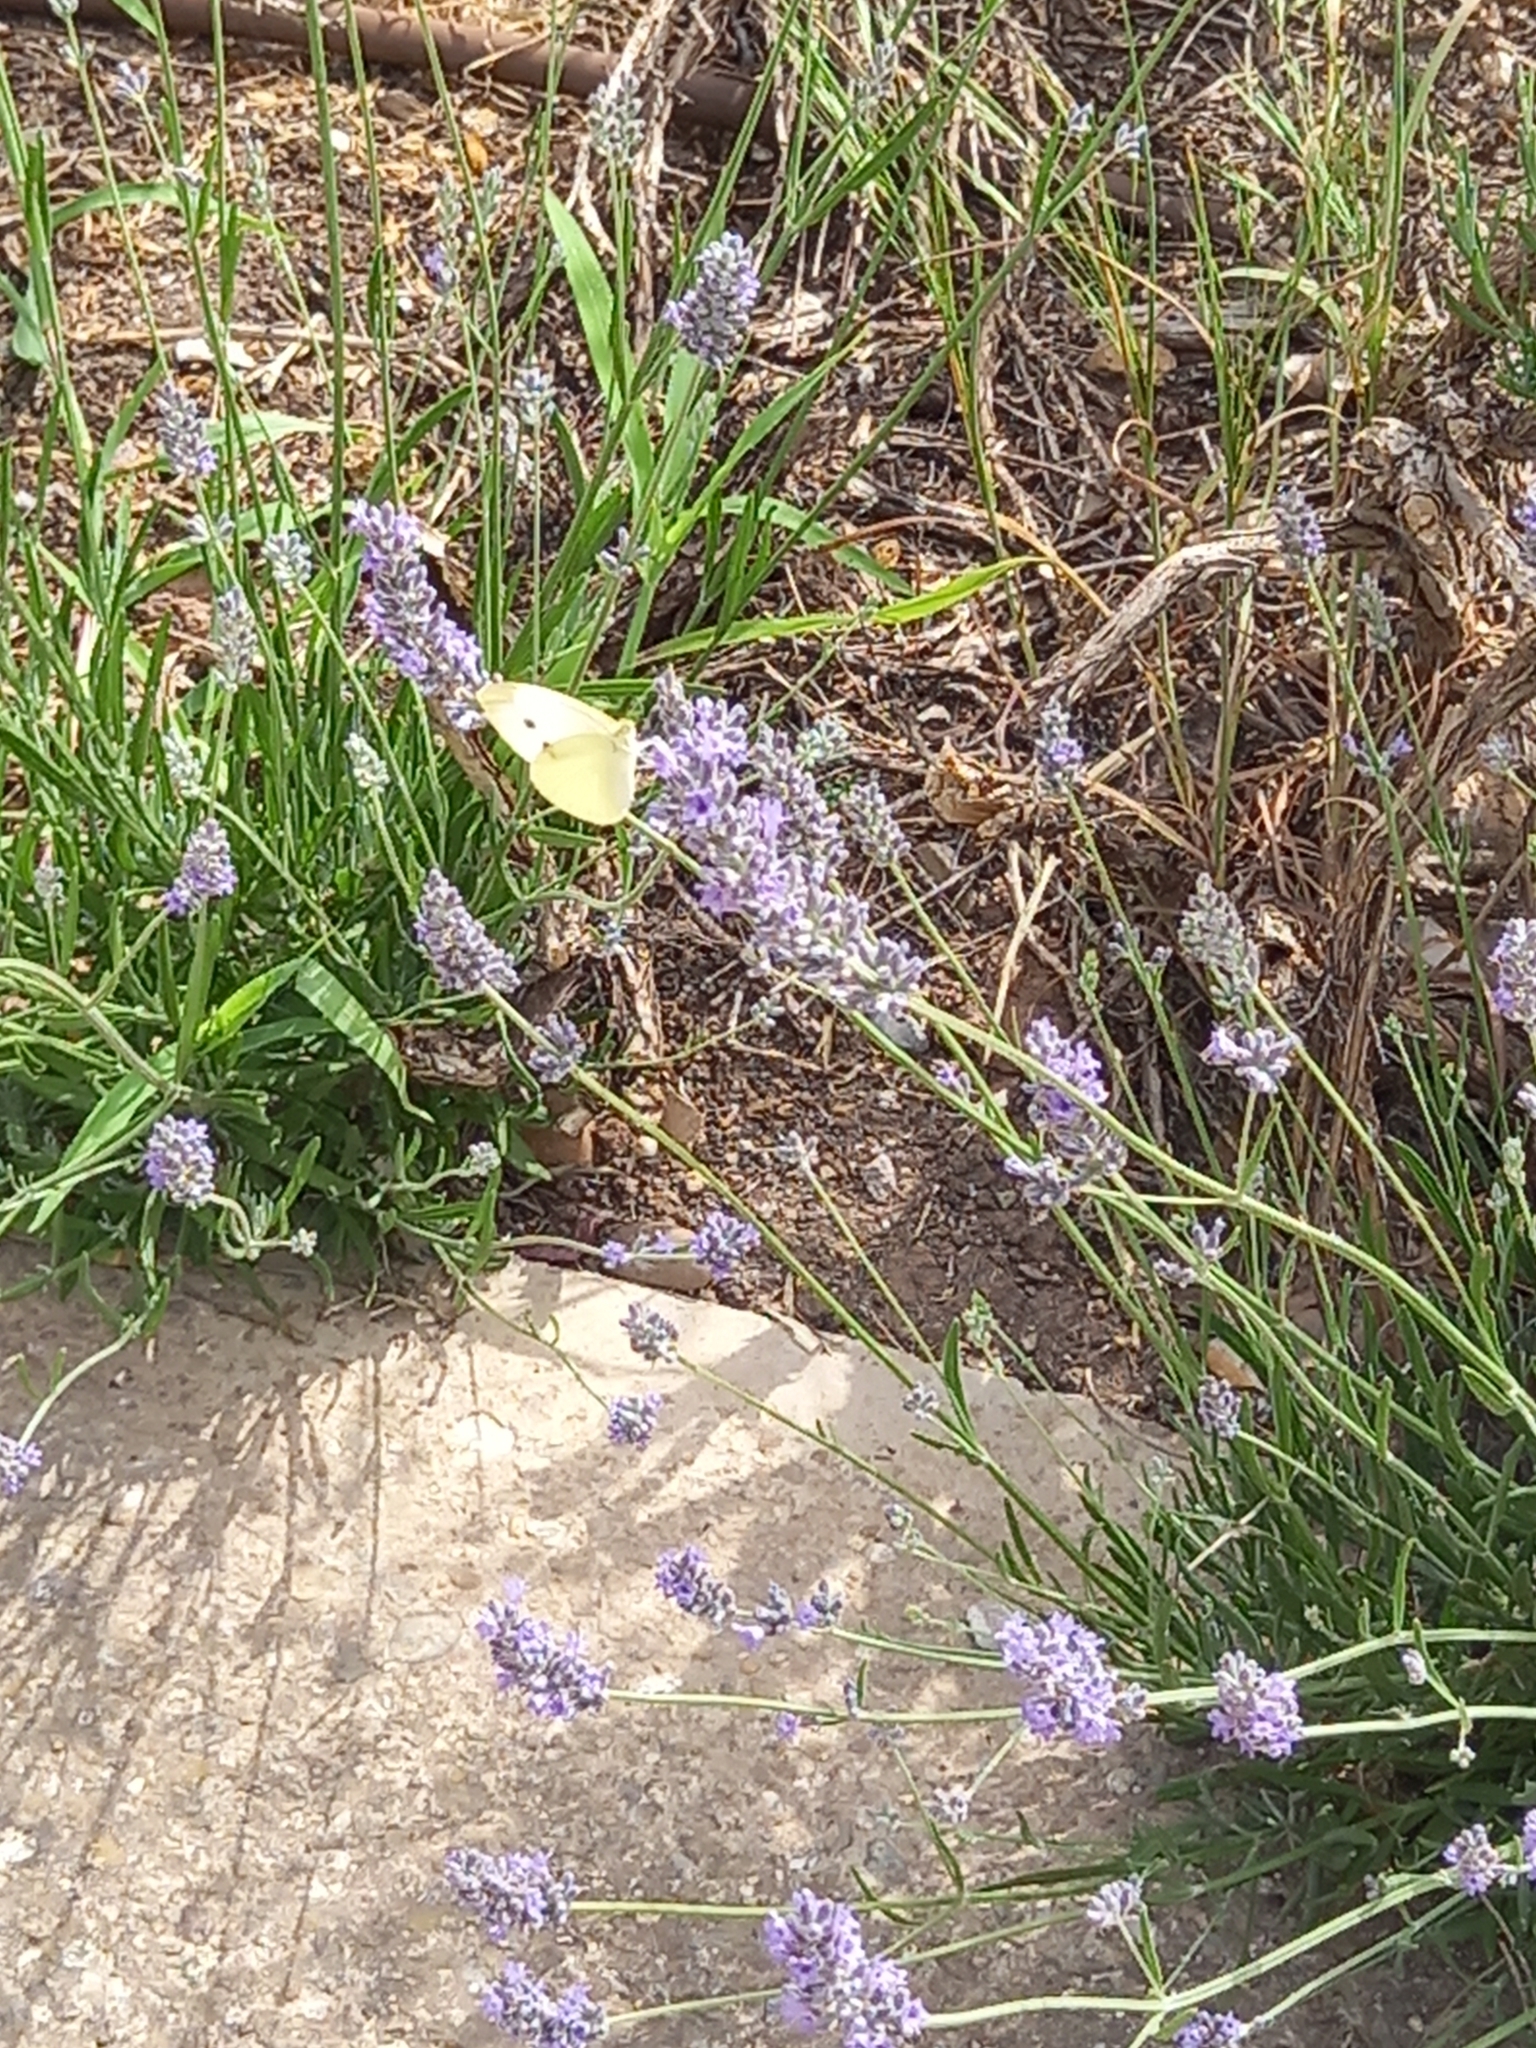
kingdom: Animalia
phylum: Arthropoda
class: Insecta
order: Lepidoptera
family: Pieridae
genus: Pieris
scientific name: Pieris rapae
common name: Small white
